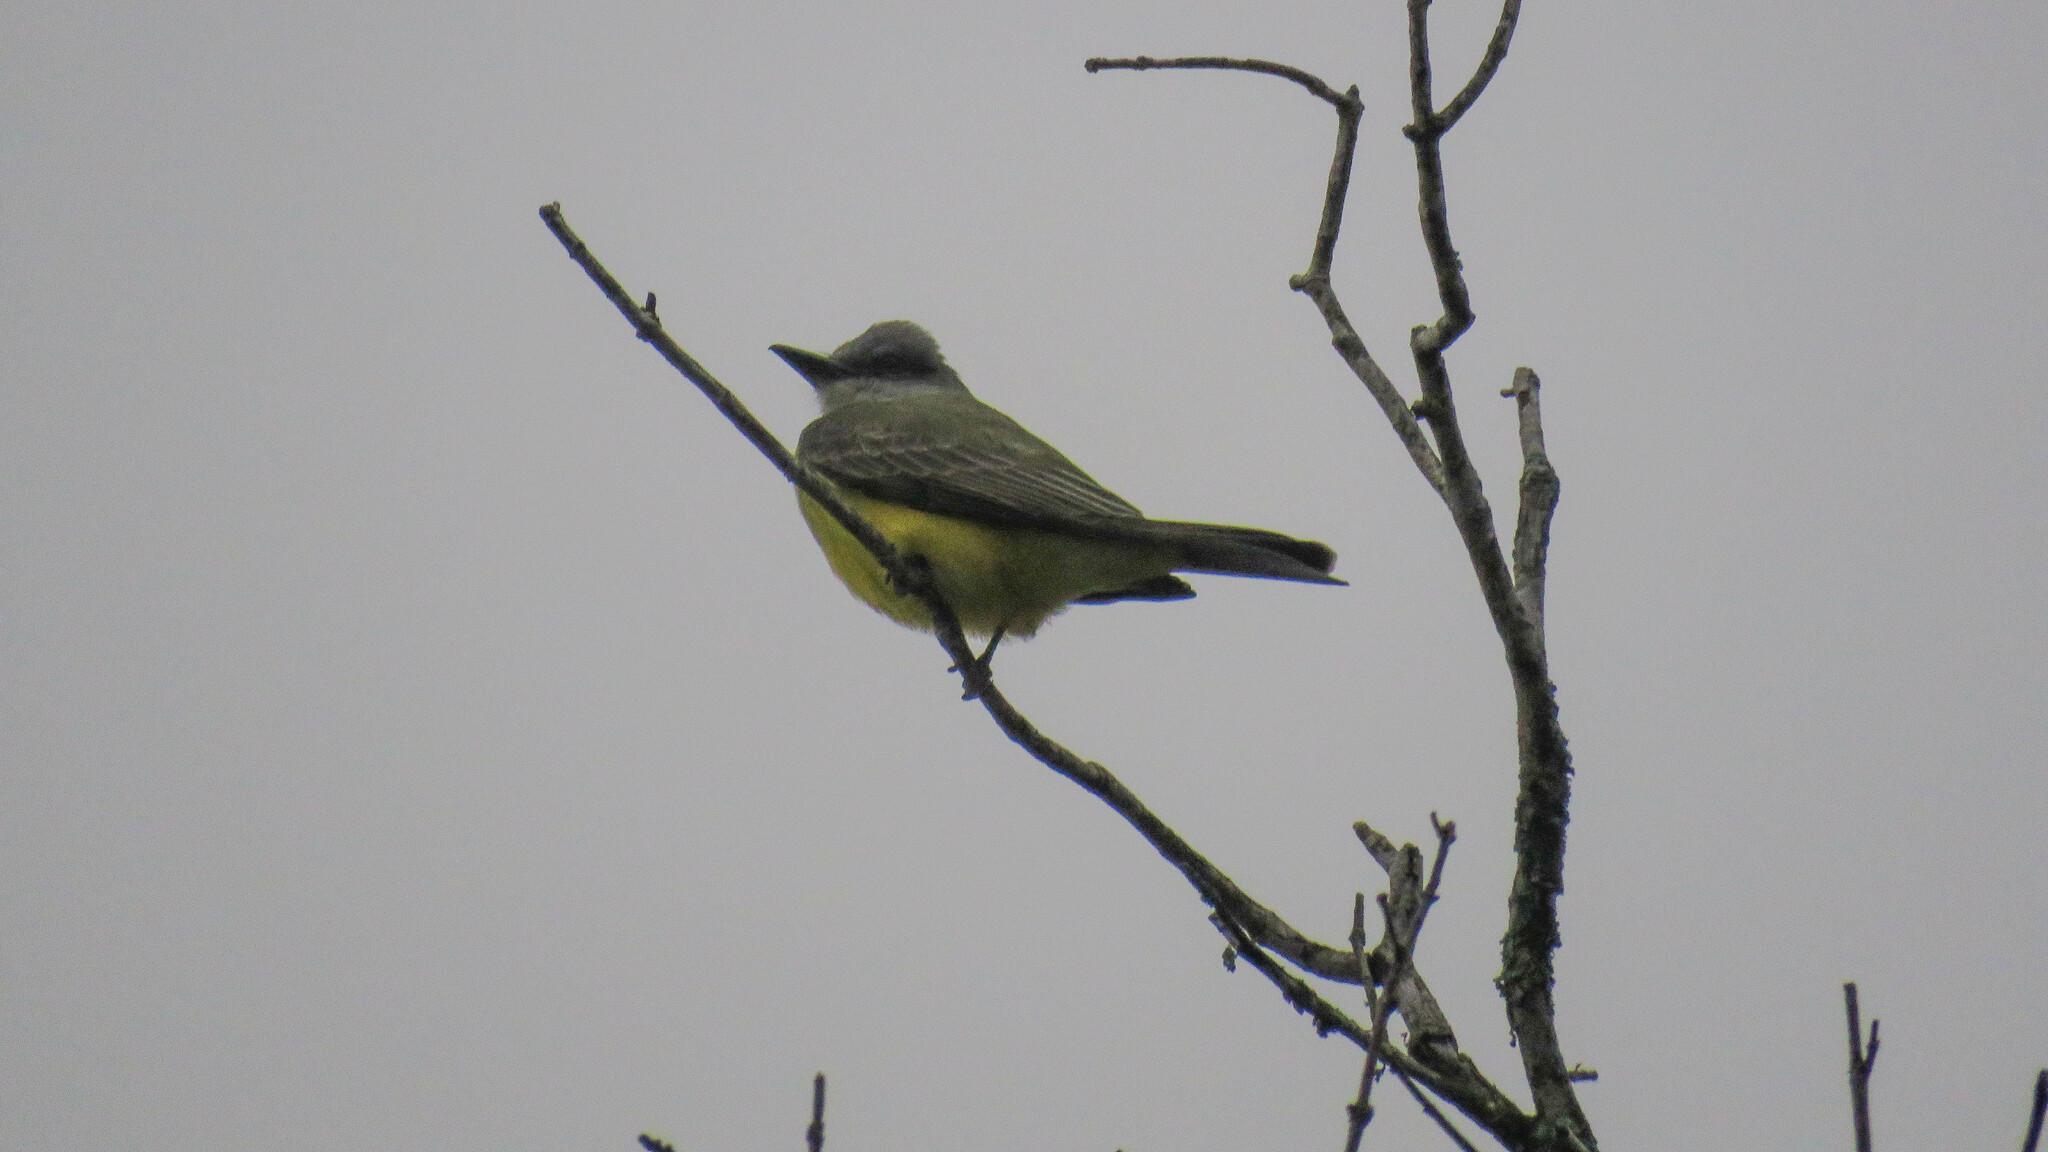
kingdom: Animalia
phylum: Chordata
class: Aves
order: Passeriformes
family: Tyrannidae
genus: Tyrannus
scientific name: Tyrannus melancholicus
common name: Tropical kingbird
